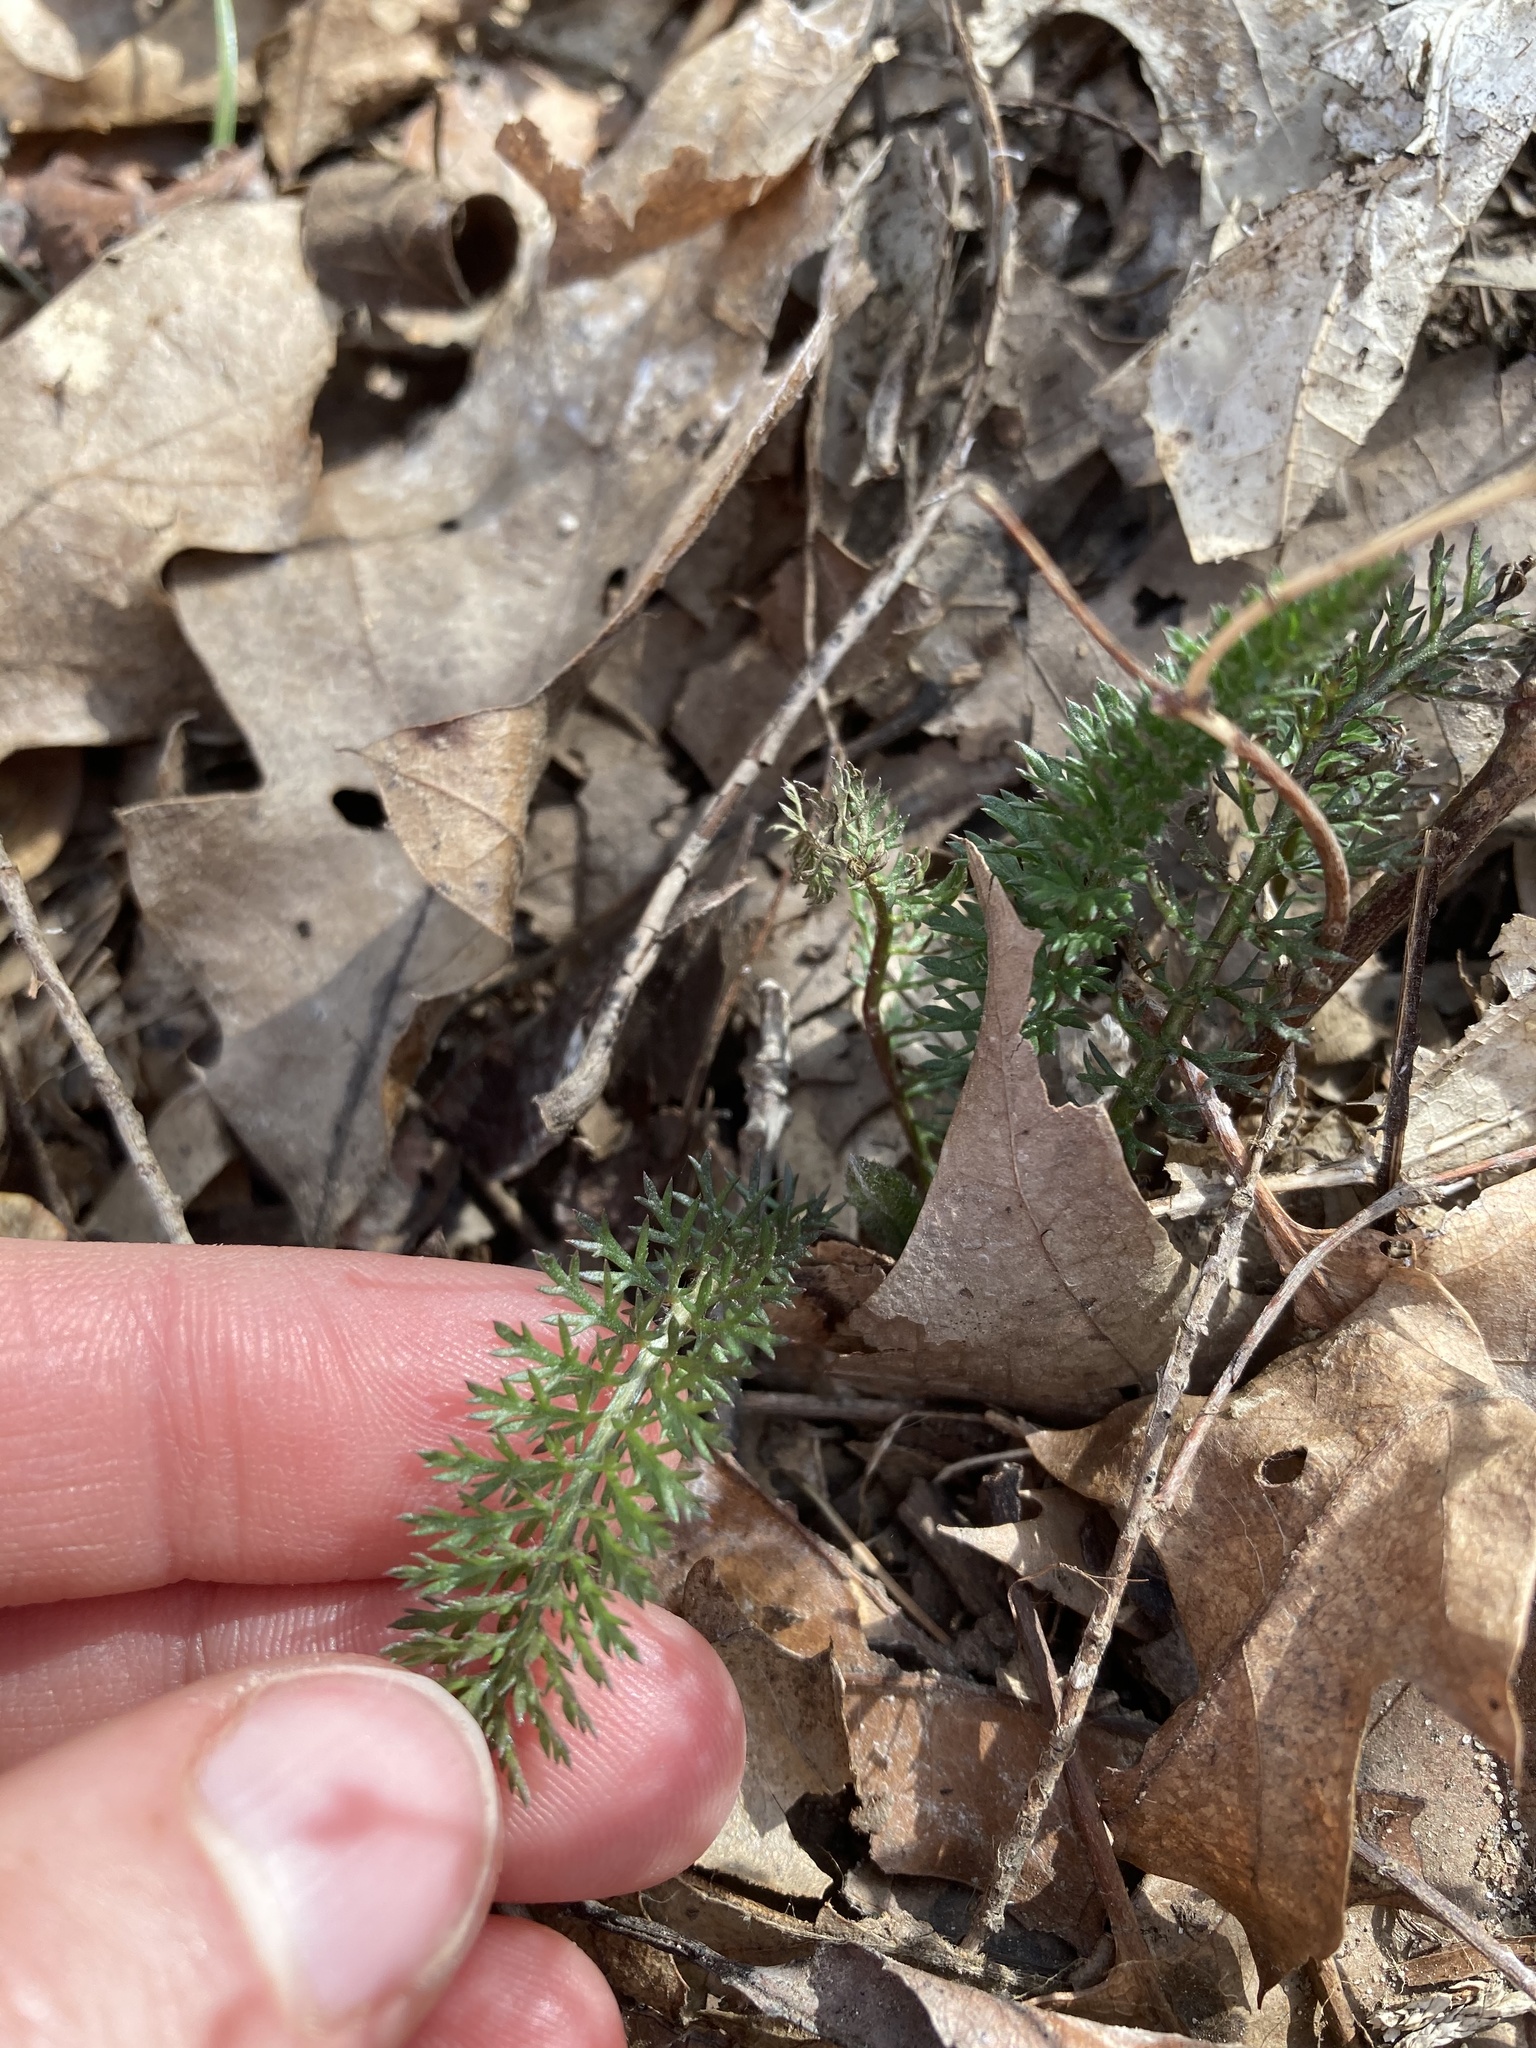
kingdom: Plantae
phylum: Tracheophyta
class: Magnoliopsida
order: Asterales
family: Asteraceae
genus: Achillea
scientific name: Achillea millefolium
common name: Yarrow
